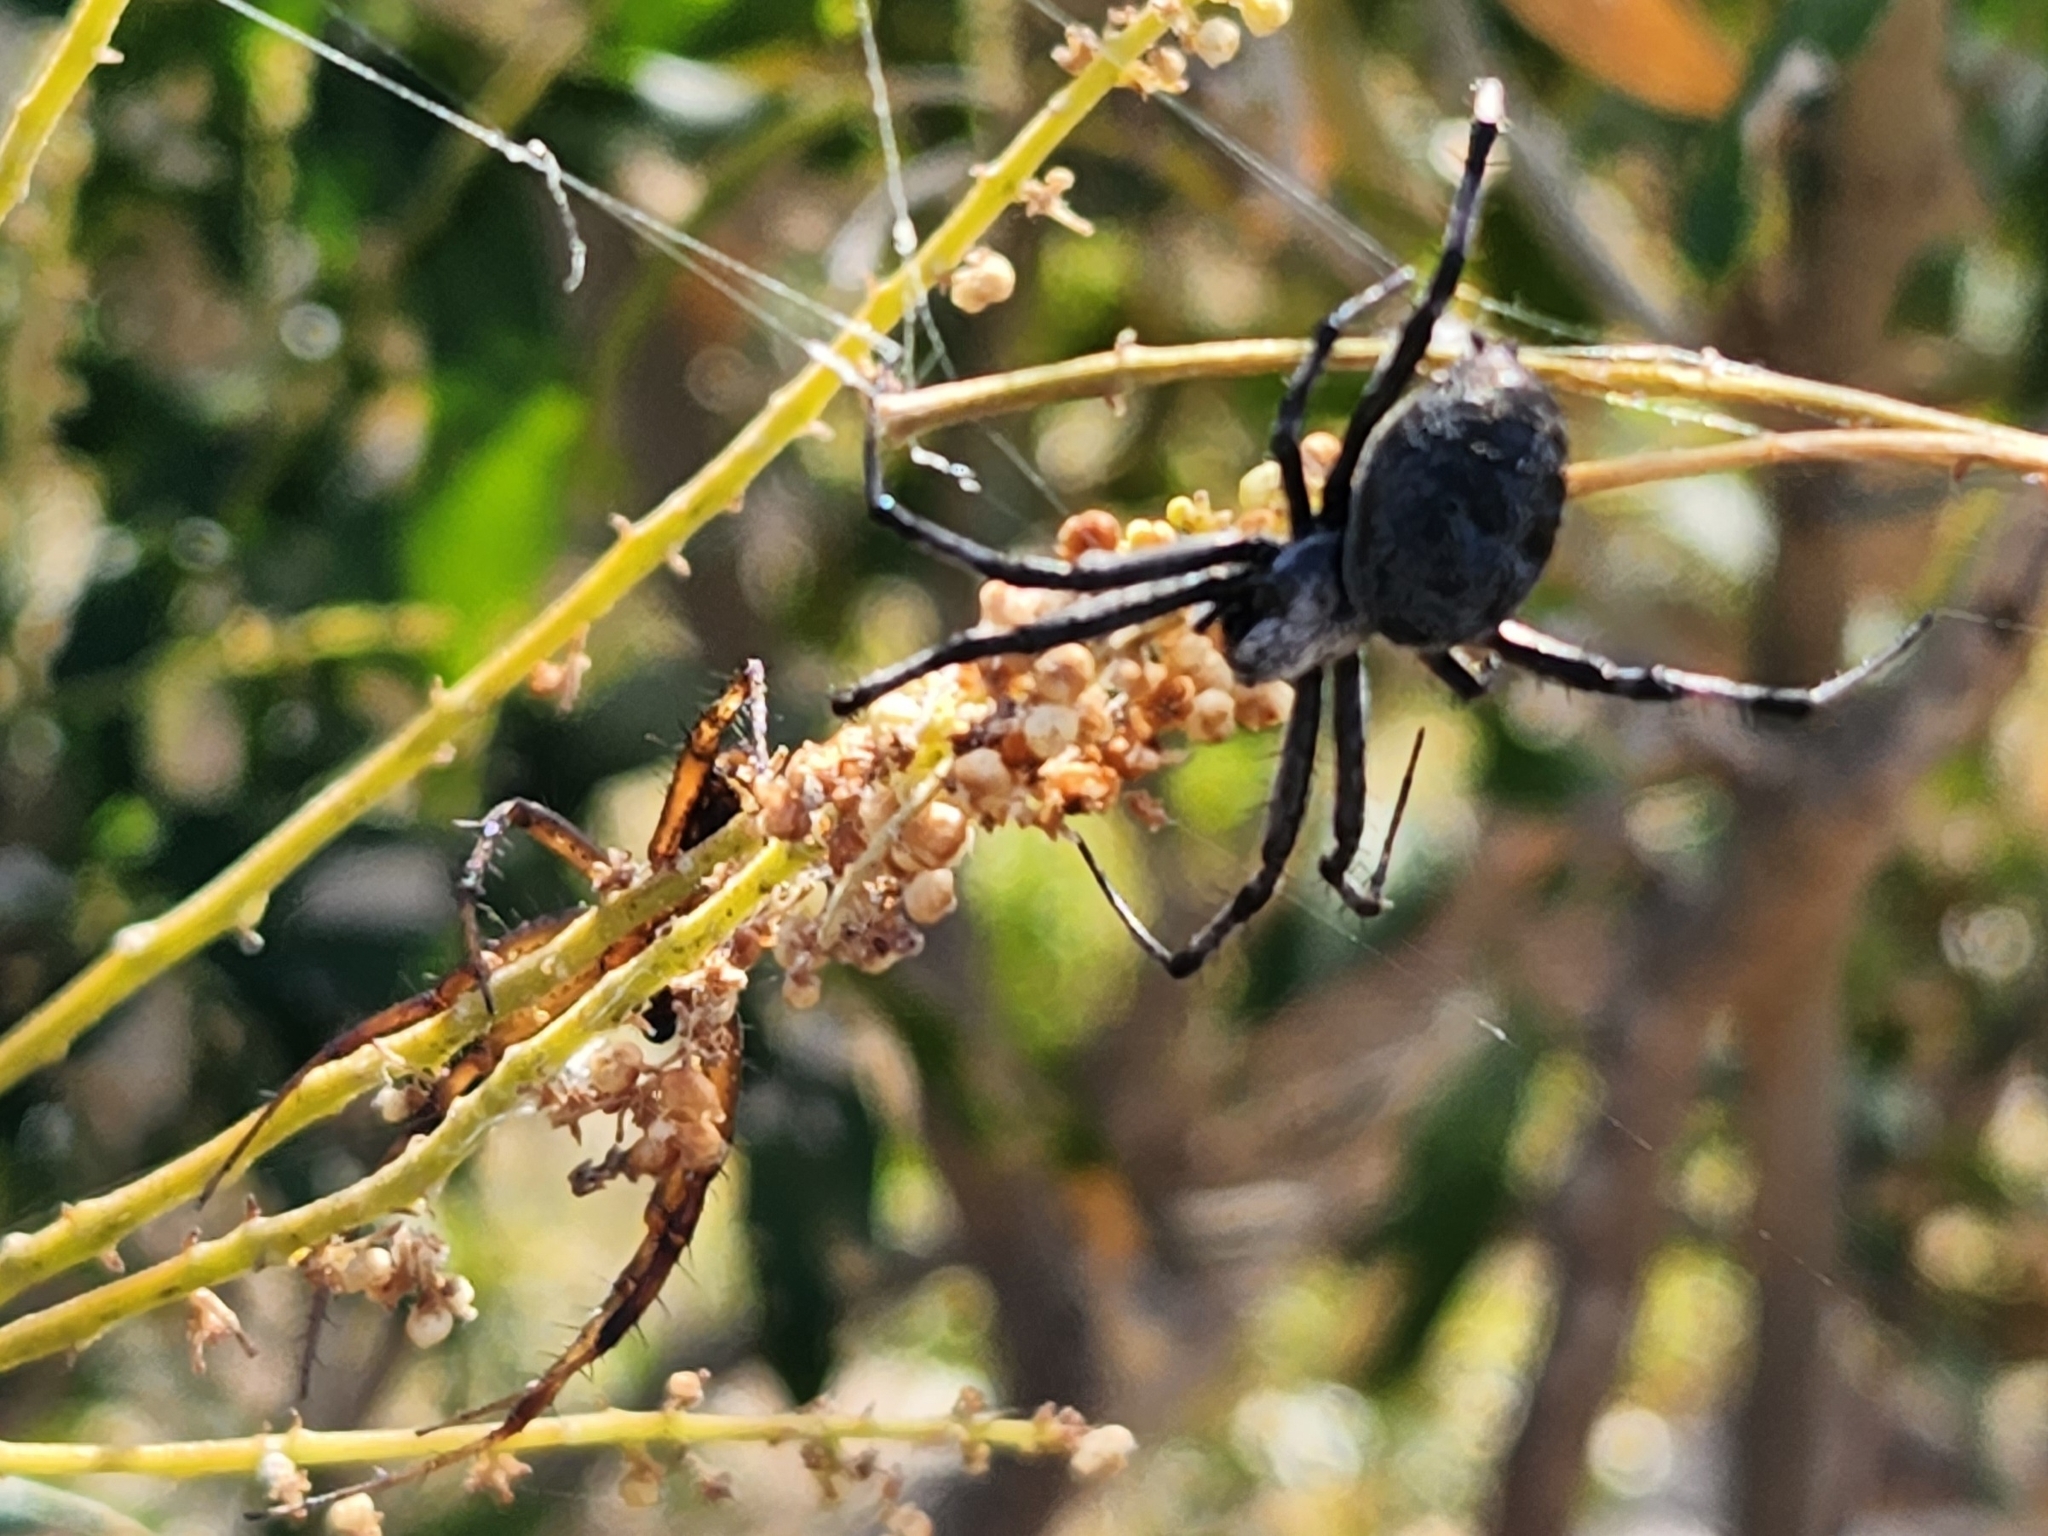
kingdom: Animalia
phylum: Arthropoda
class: Arachnida
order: Araneae
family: Araneidae
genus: Neoscona
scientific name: Neoscona oaxacensis
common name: Orb weavers
